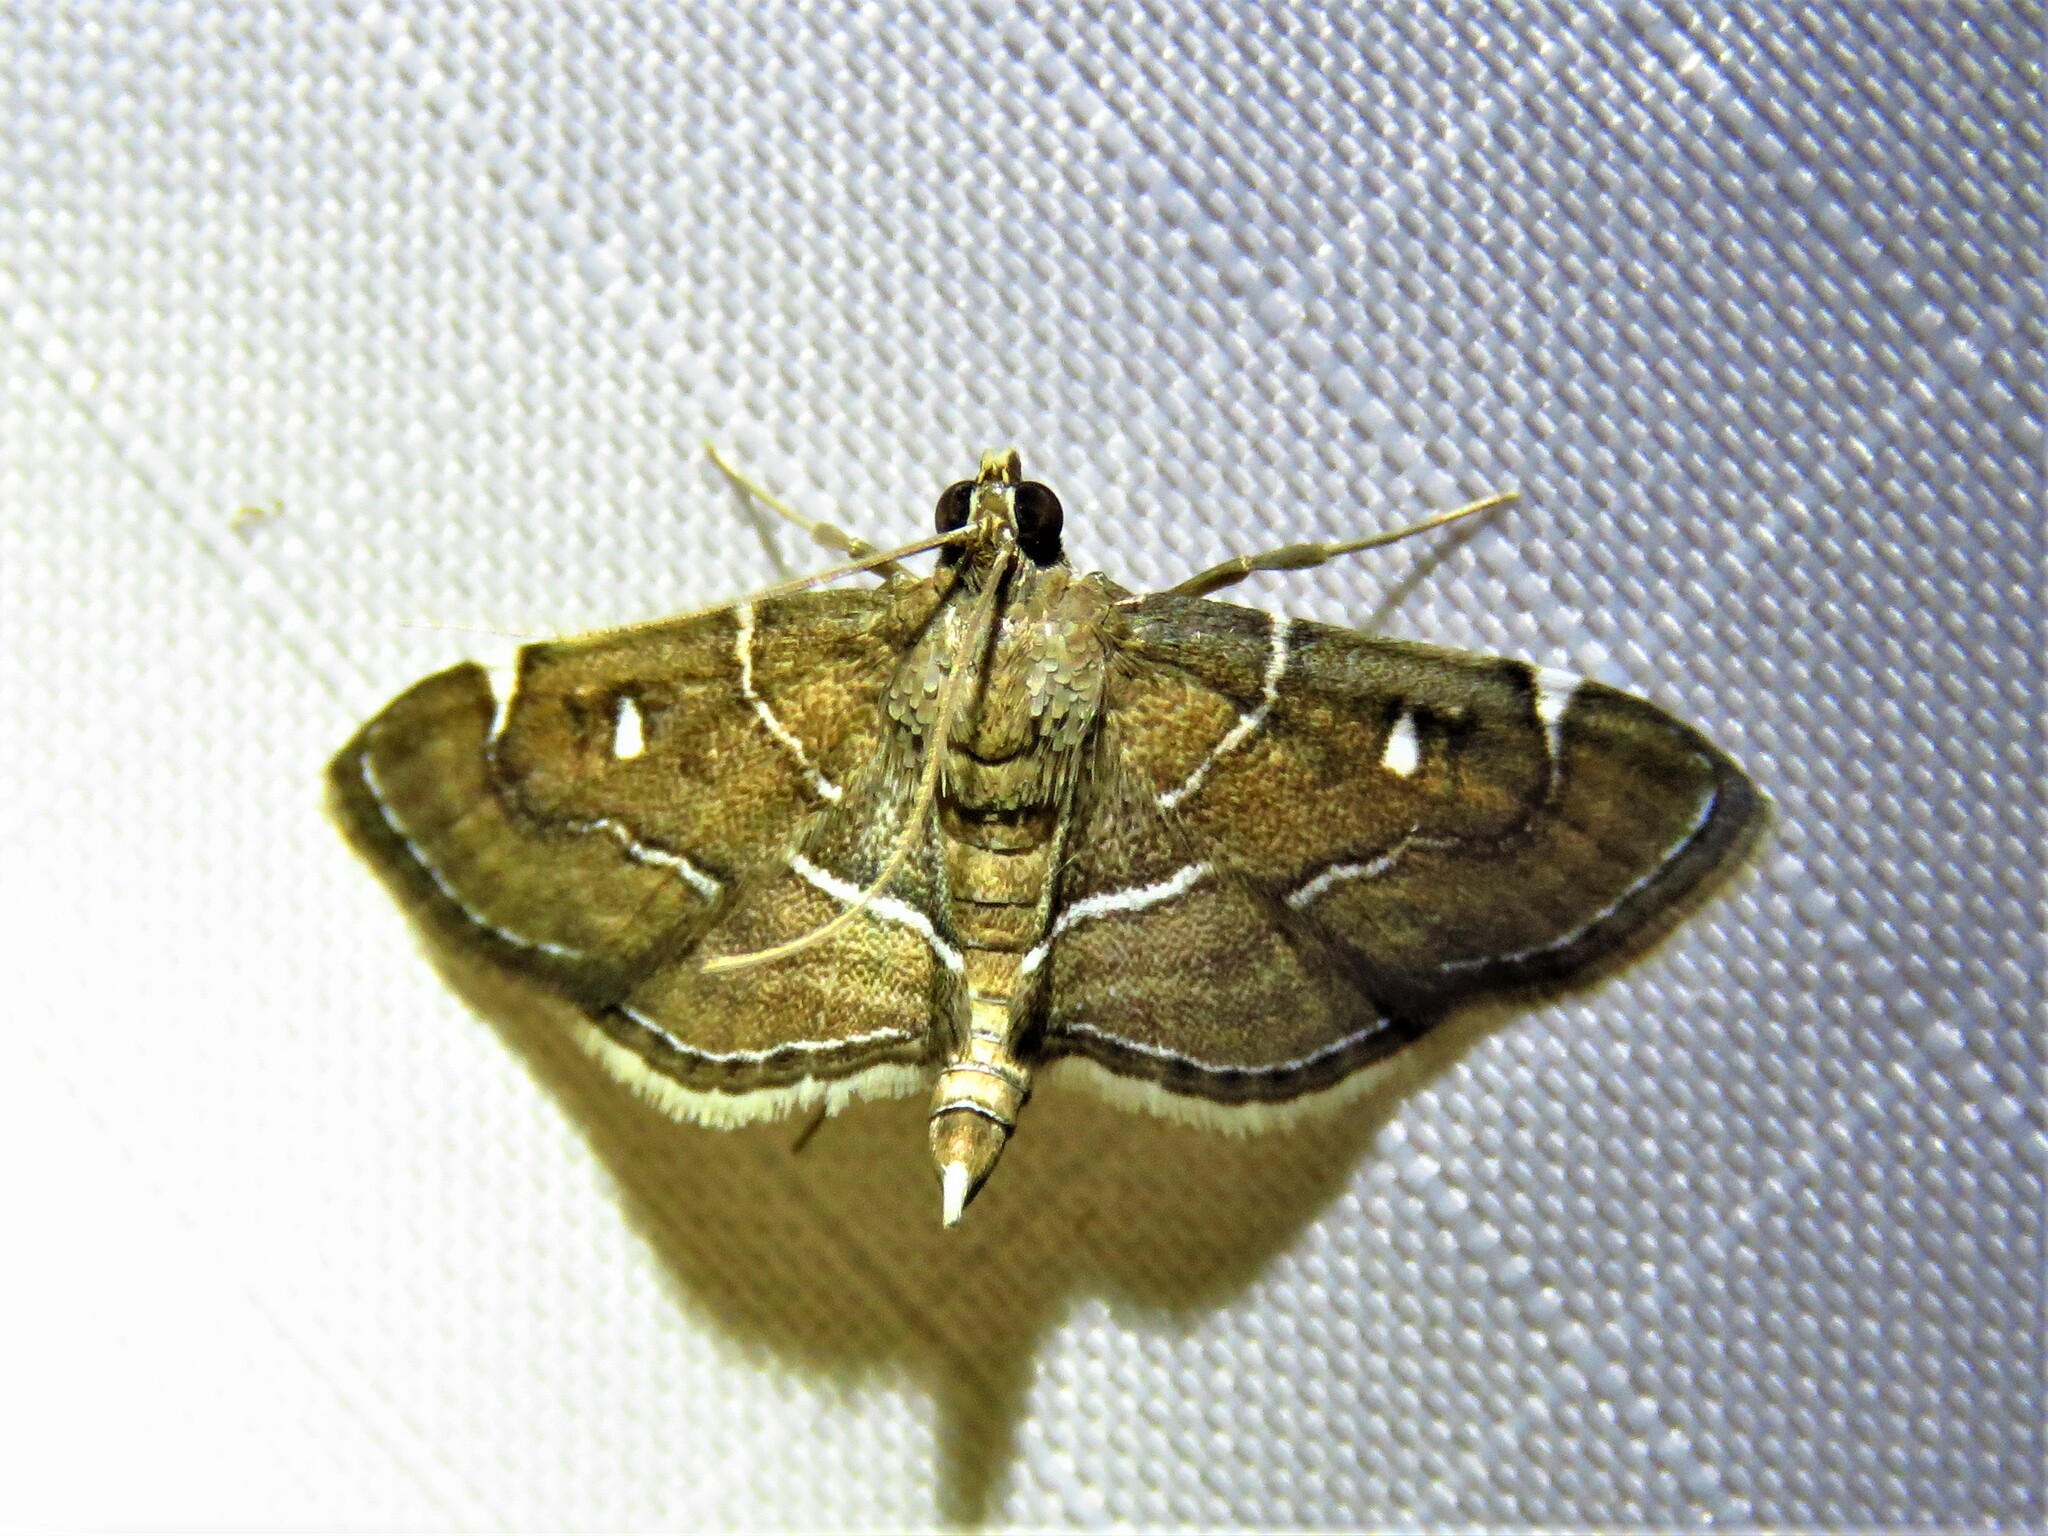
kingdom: Animalia
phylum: Arthropoda
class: Insecta
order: Lepidoptera
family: Crambidae
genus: Lamprosema
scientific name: Lamprosema victoriae
